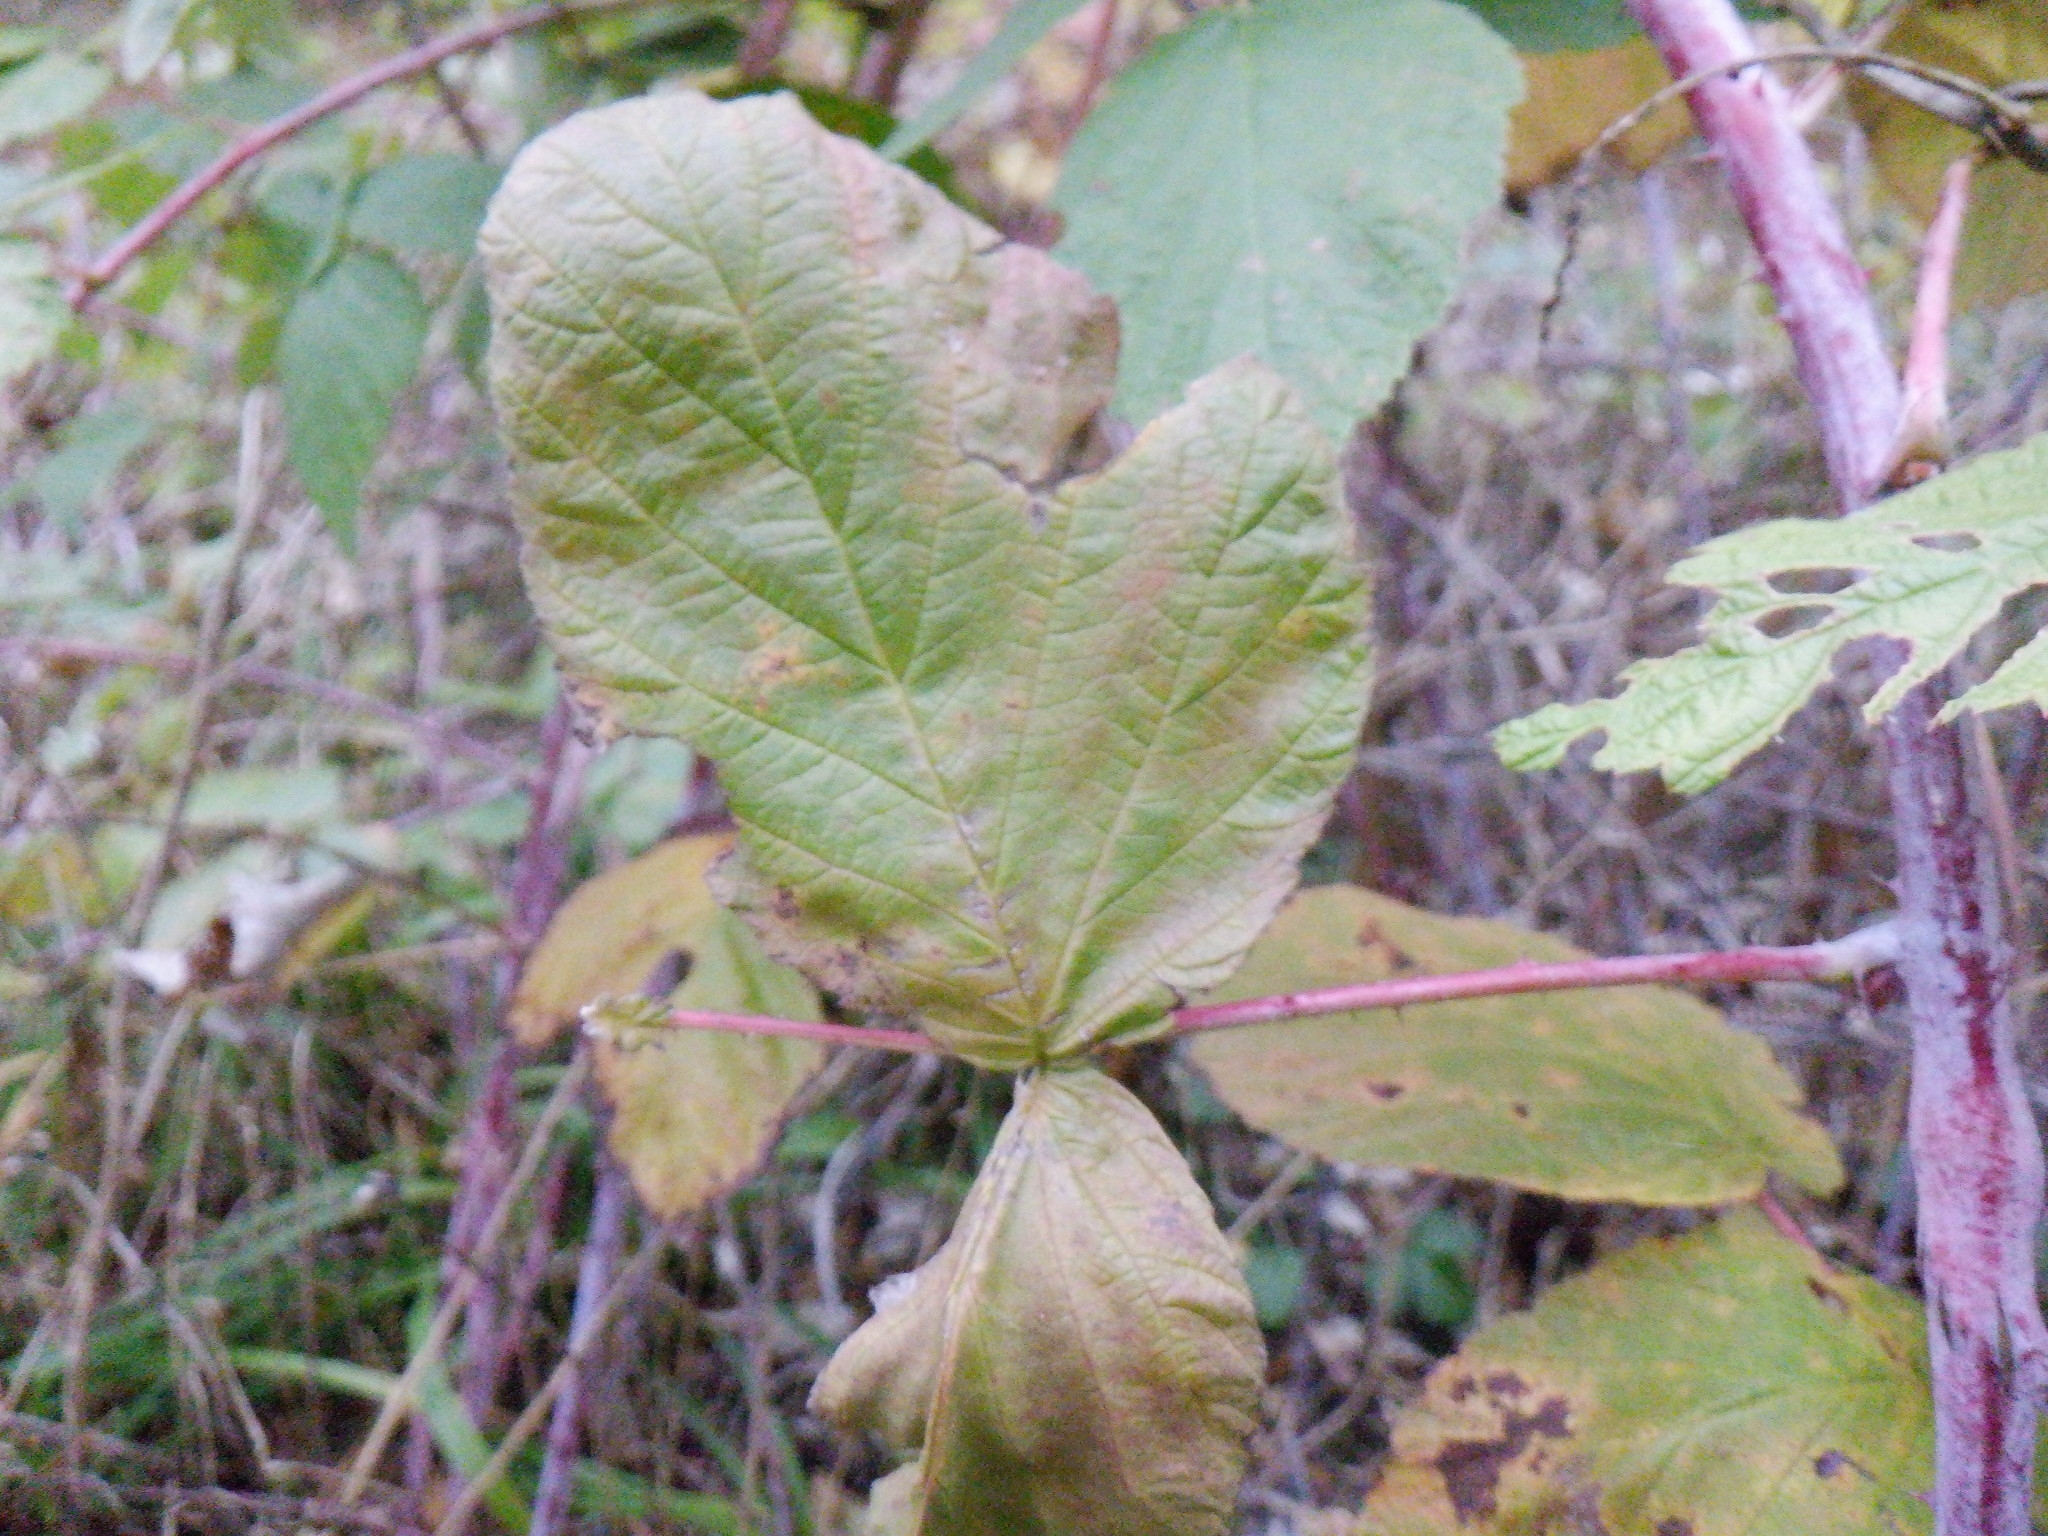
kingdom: Plantae
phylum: Tracheophyta
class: Magnoliopsida
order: Rosales
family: Rosaceae
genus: Rubus
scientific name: Rubus occidentalis
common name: Black raspberry
